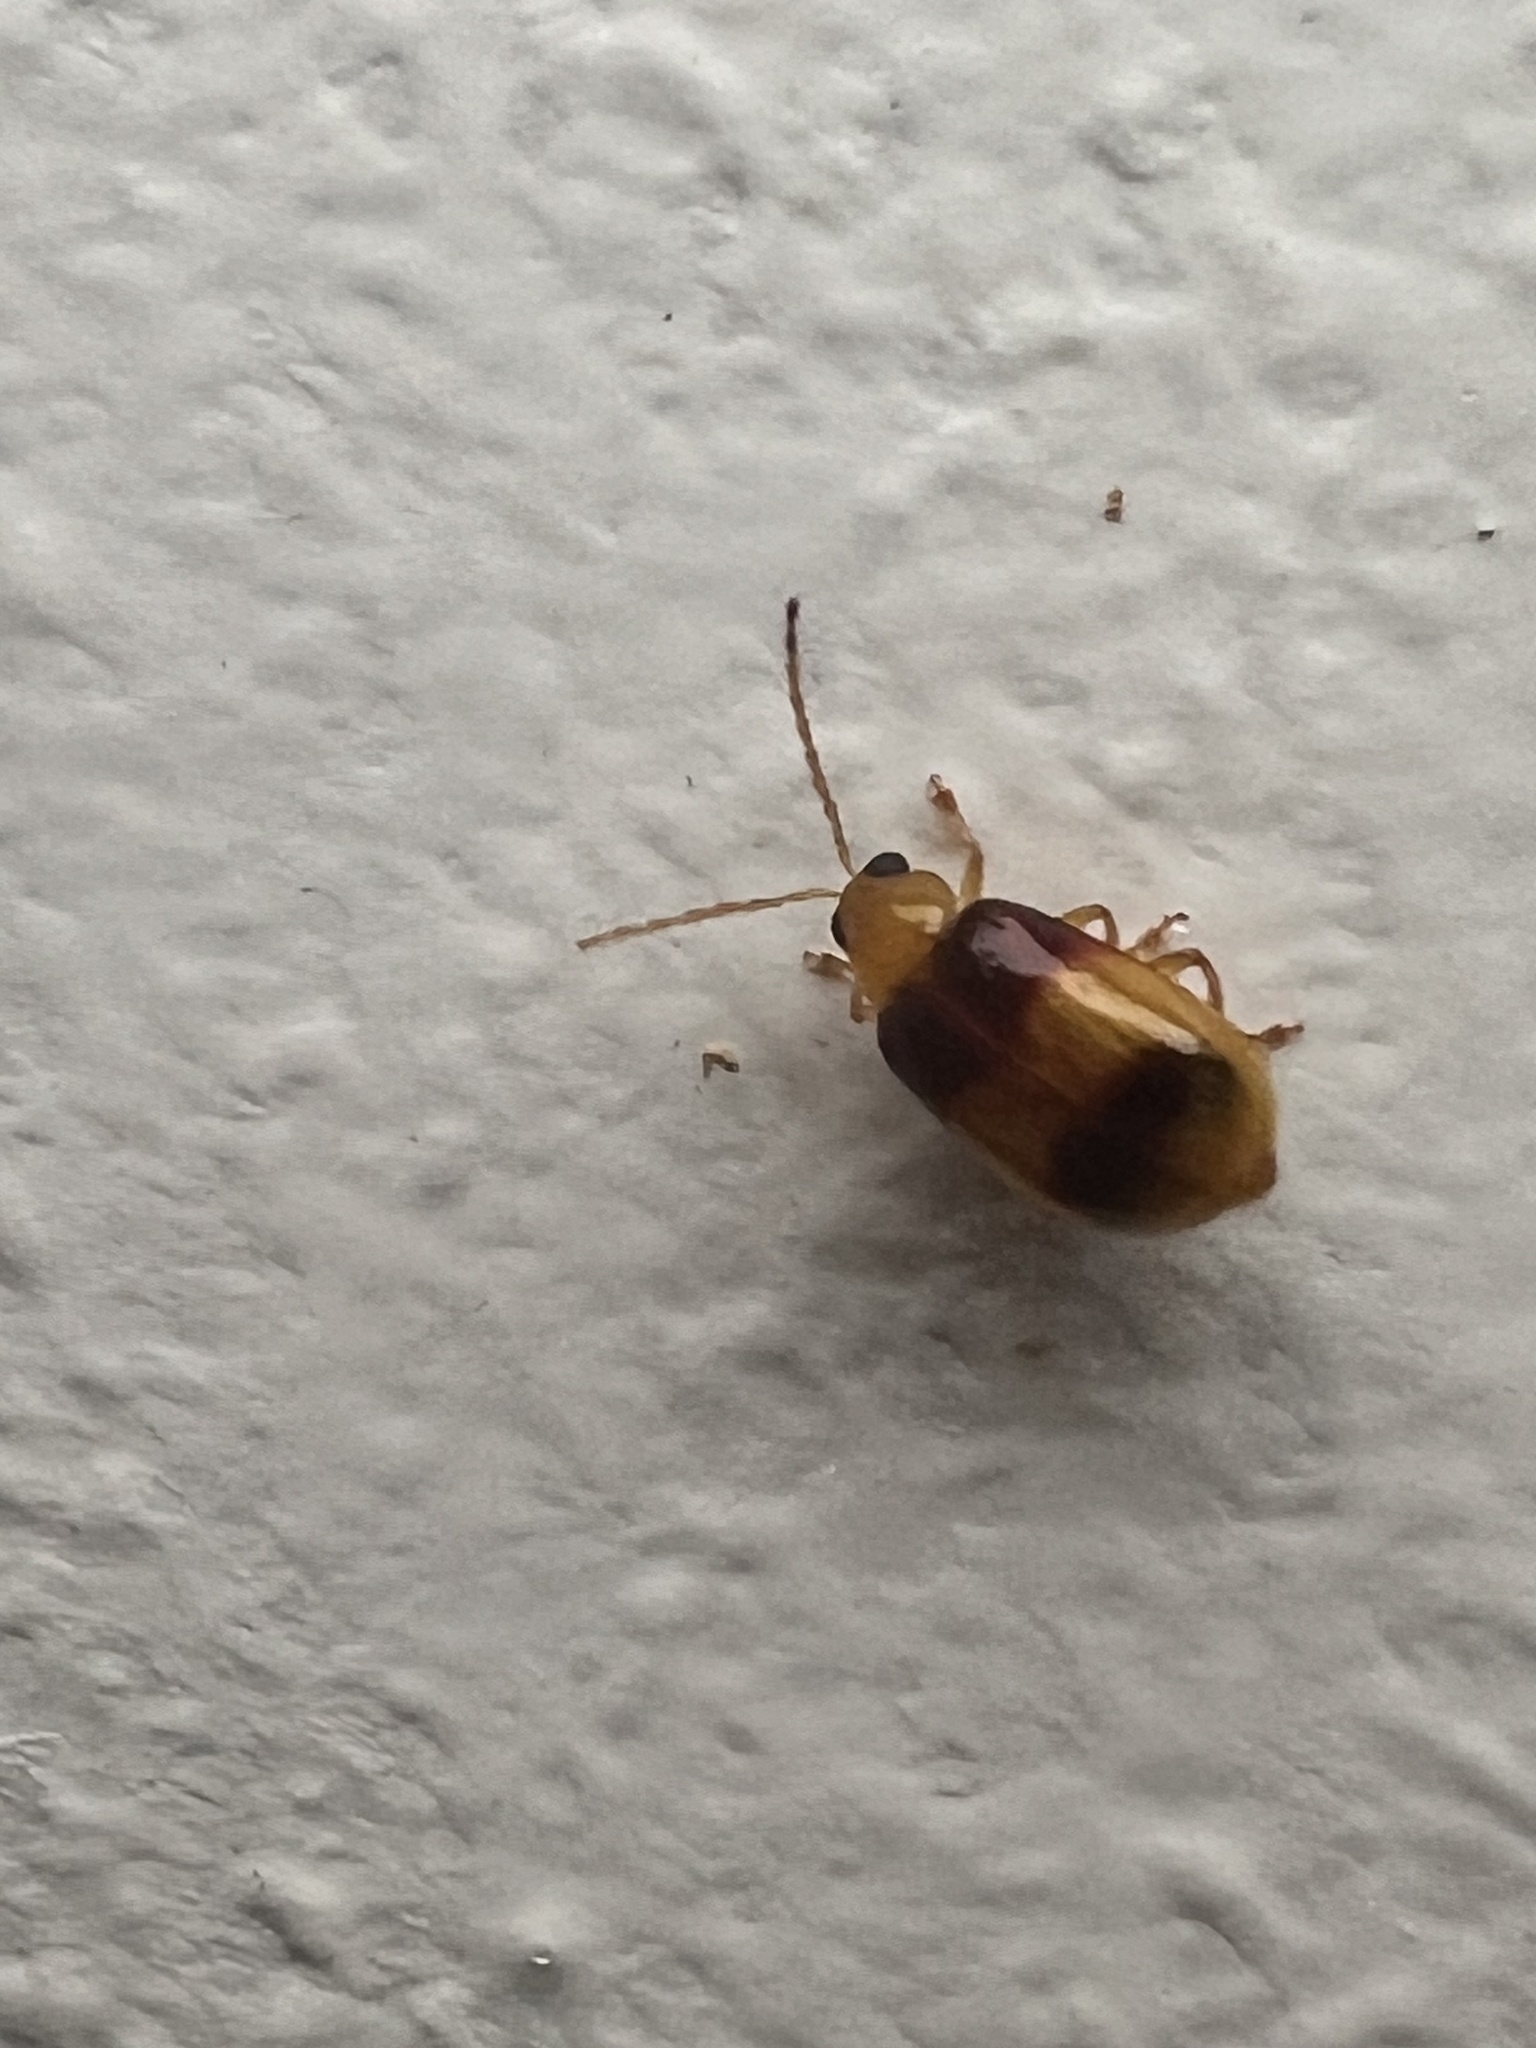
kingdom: Animalia
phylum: Arthropoda
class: Insecta
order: Coleoptera
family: Chrysomelidae
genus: Monolepta
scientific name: Monolepta
